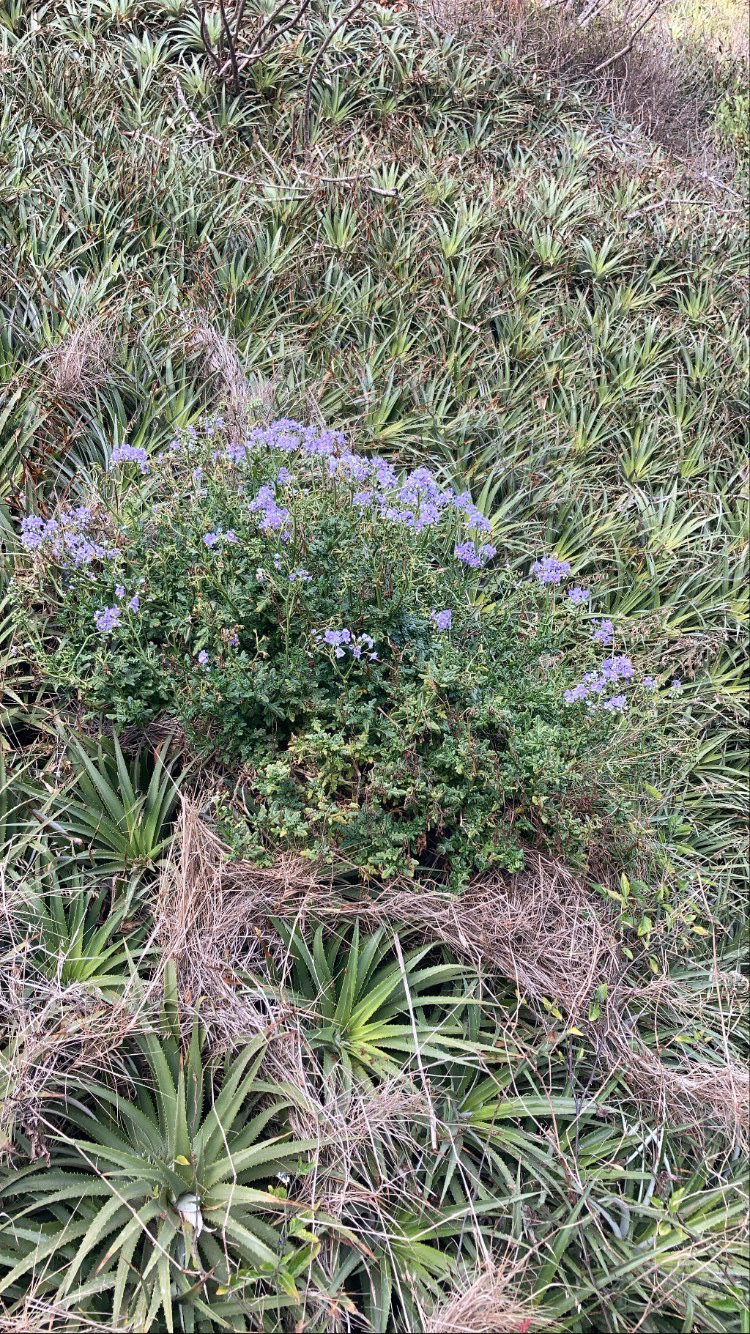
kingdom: Plantae
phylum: Tracheophyta
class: Magnoliopsida
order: Solanales
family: Solanaceae
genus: Solanum
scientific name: Solanum pinnatum
